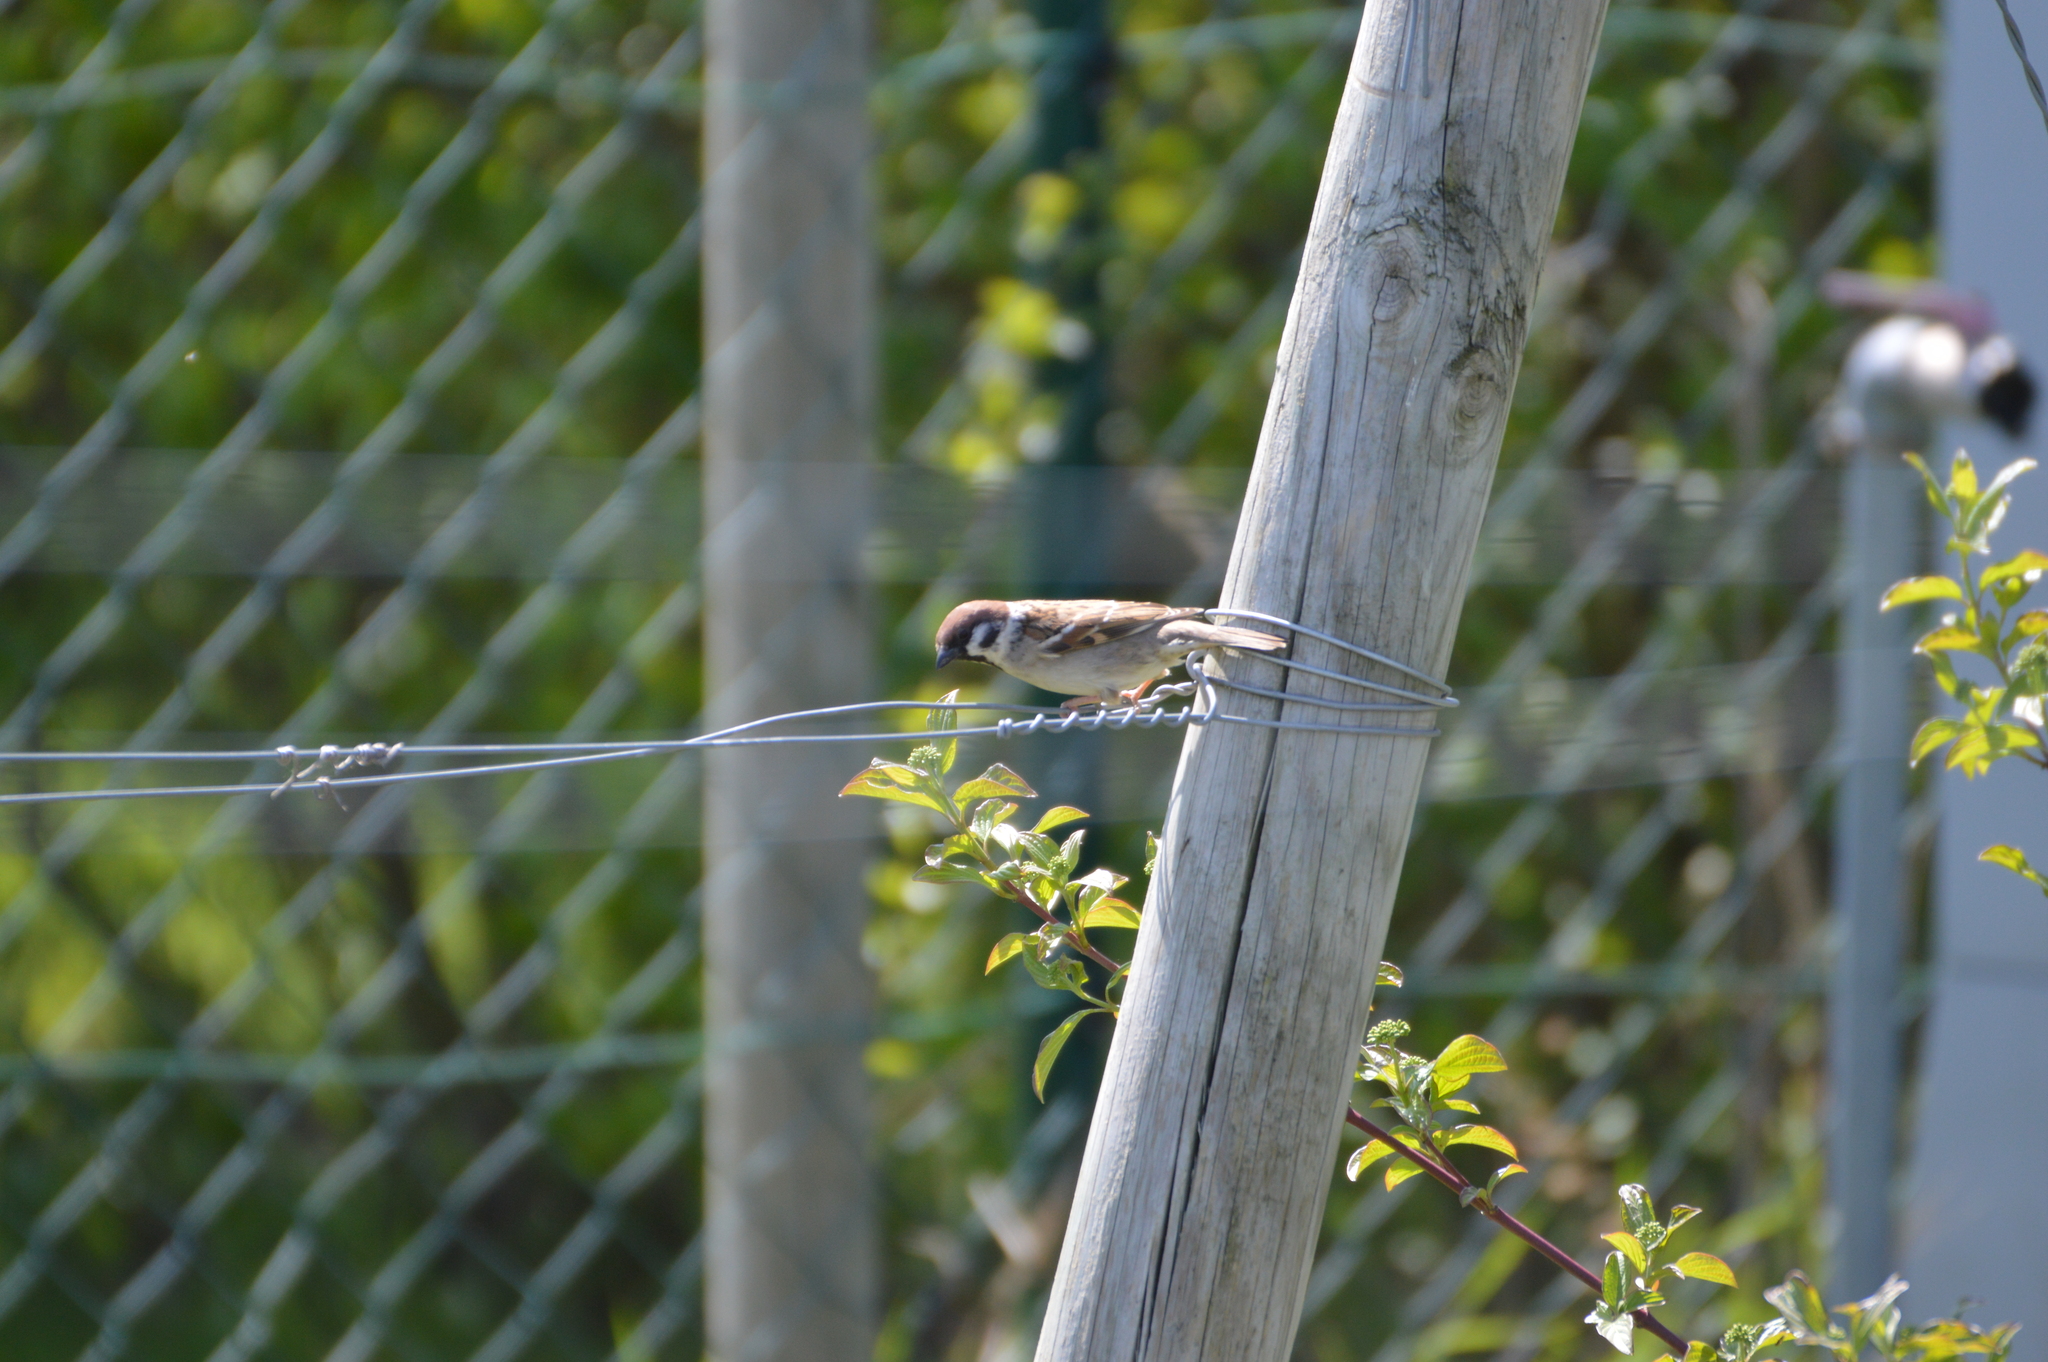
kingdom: Animalia
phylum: Chordata
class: Aves
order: Passeriformes
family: Passeridae
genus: Passer
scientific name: Passer montanus
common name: Eurasian tree sparrow
